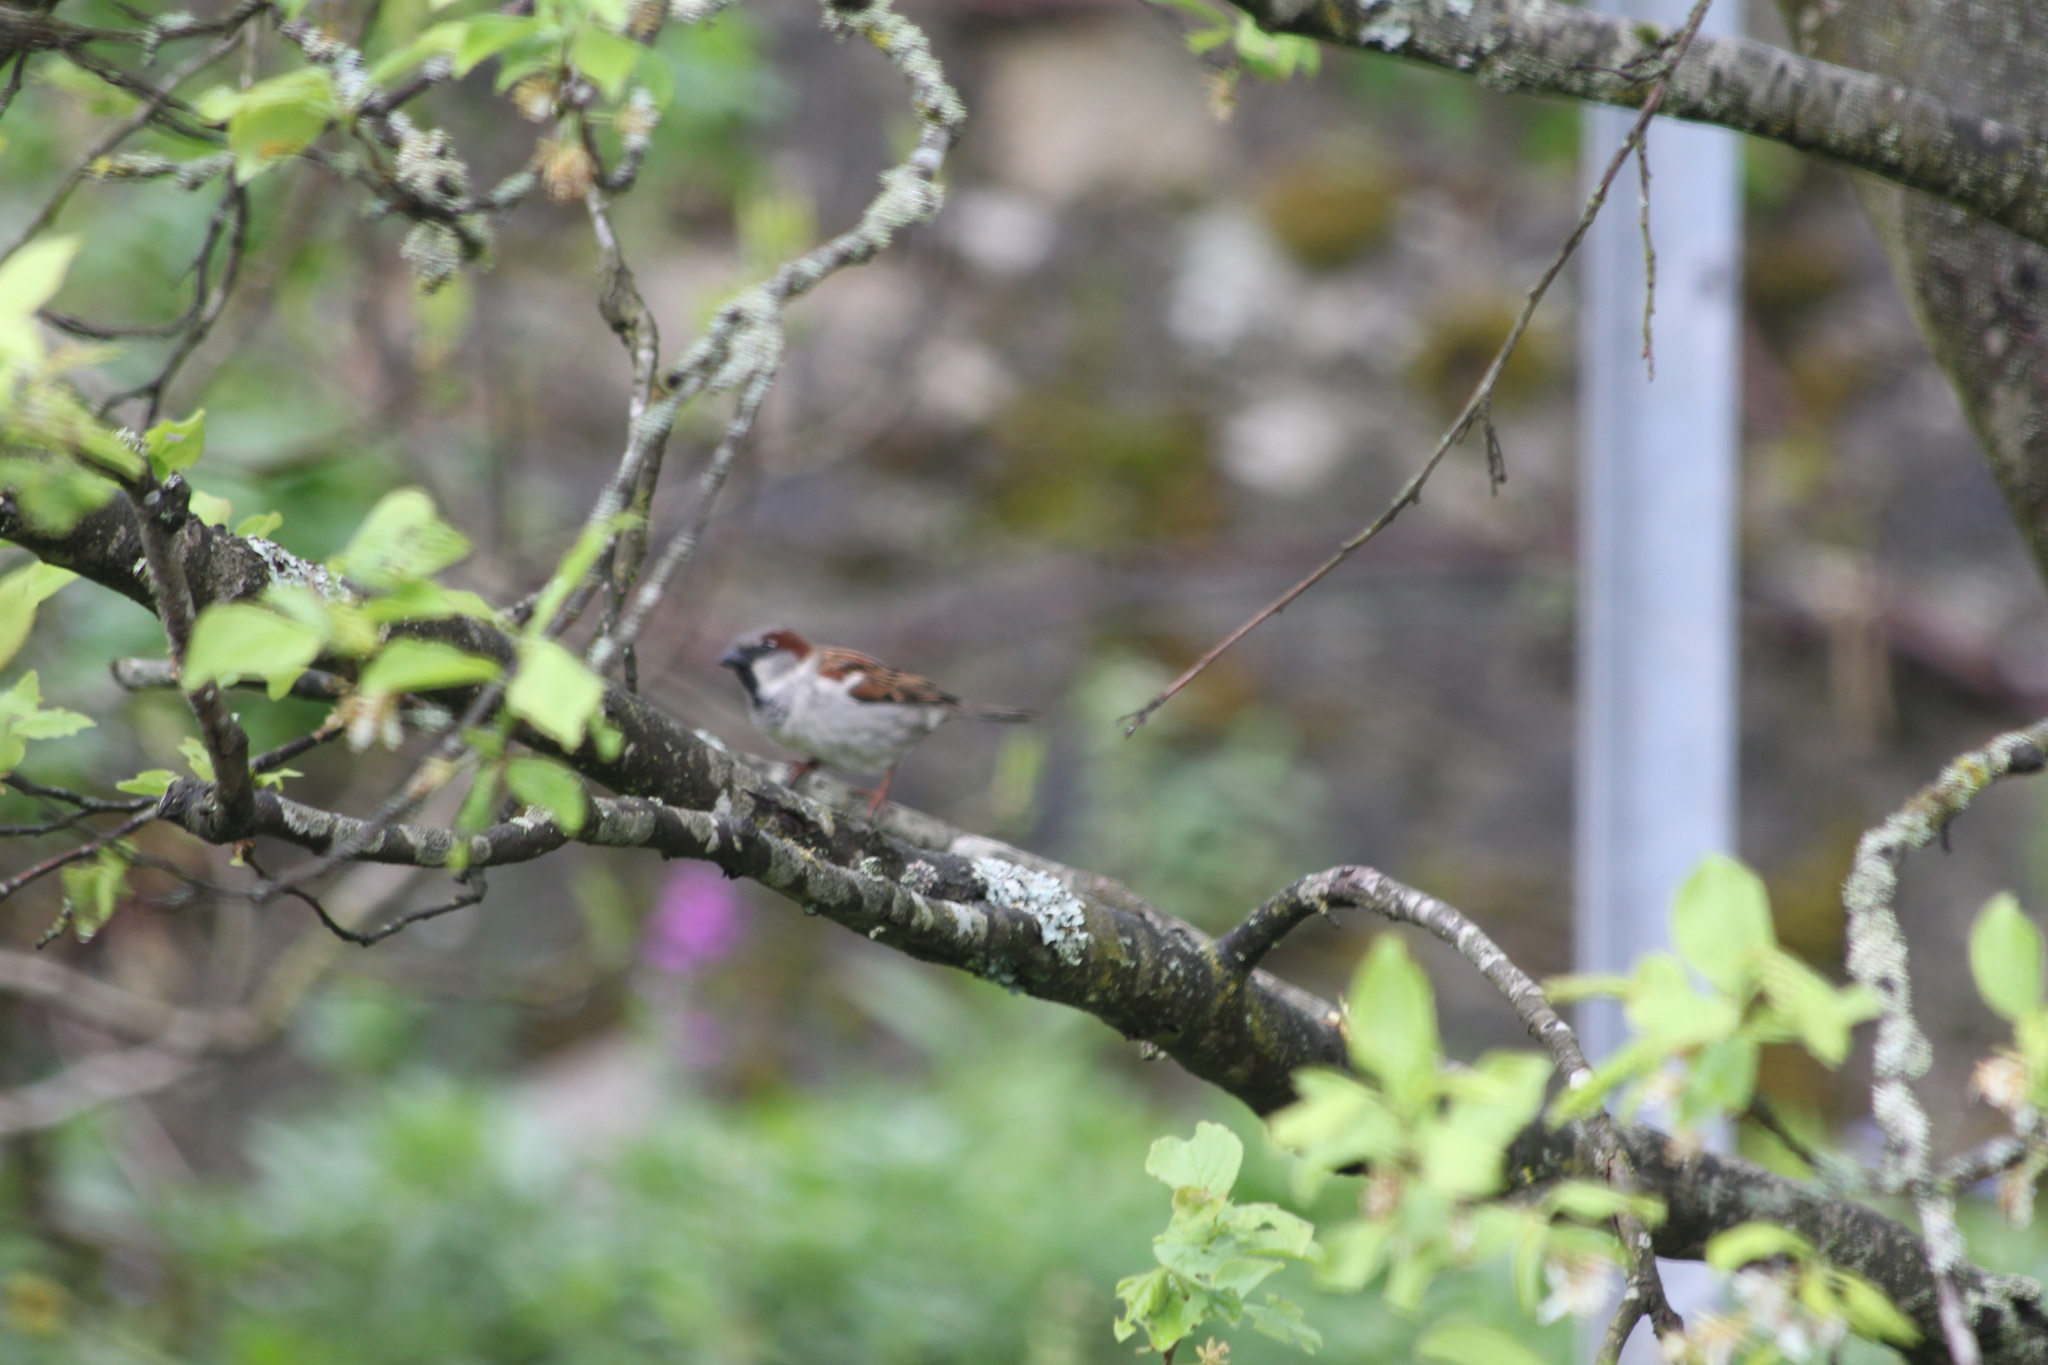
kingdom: Animalia
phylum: Chordata
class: Aves
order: Passeriformes
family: Passeridae
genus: Passer
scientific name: Passer domesticus
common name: House sparrow
